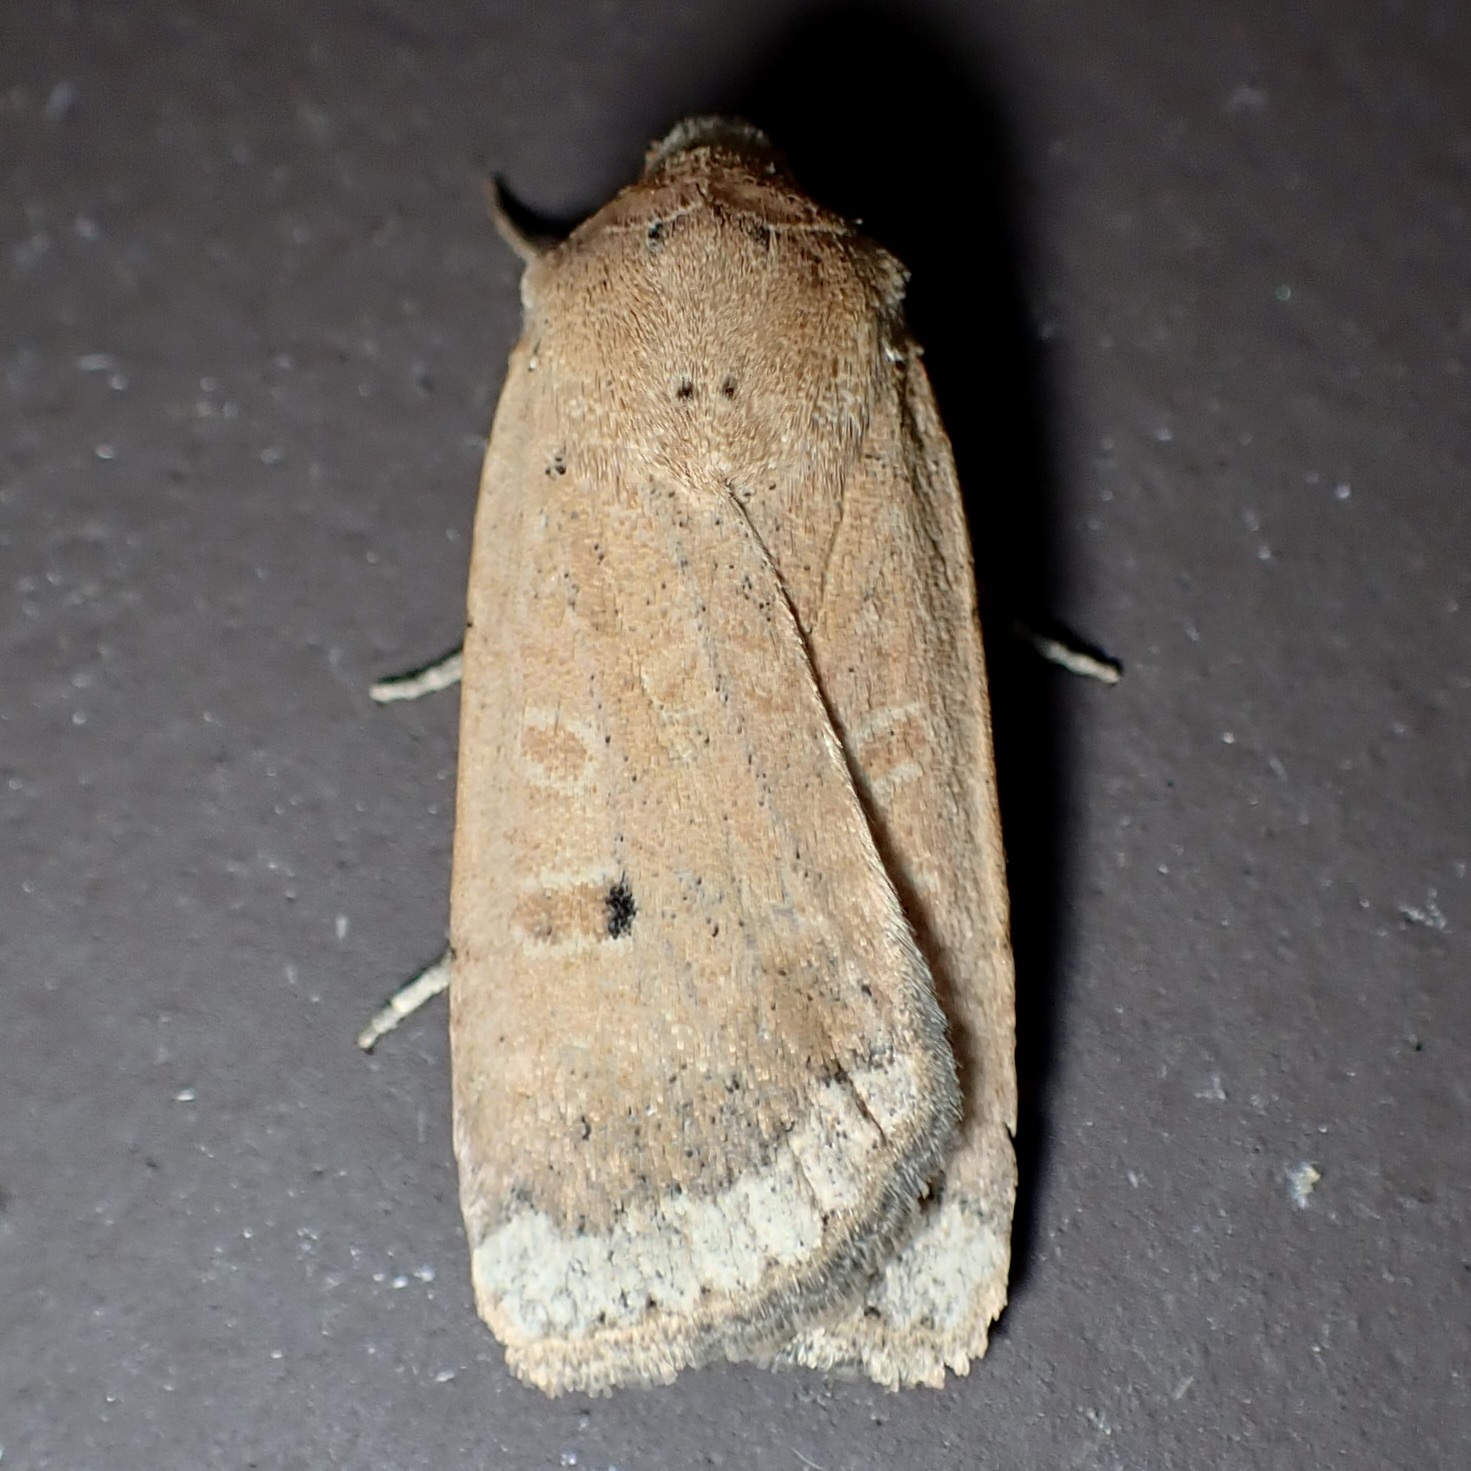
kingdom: Animalia
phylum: Arthropoda
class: Insecta
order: Lepidoptera
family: Noctuidae
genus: Abagrotis
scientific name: Abagrotis orbis
